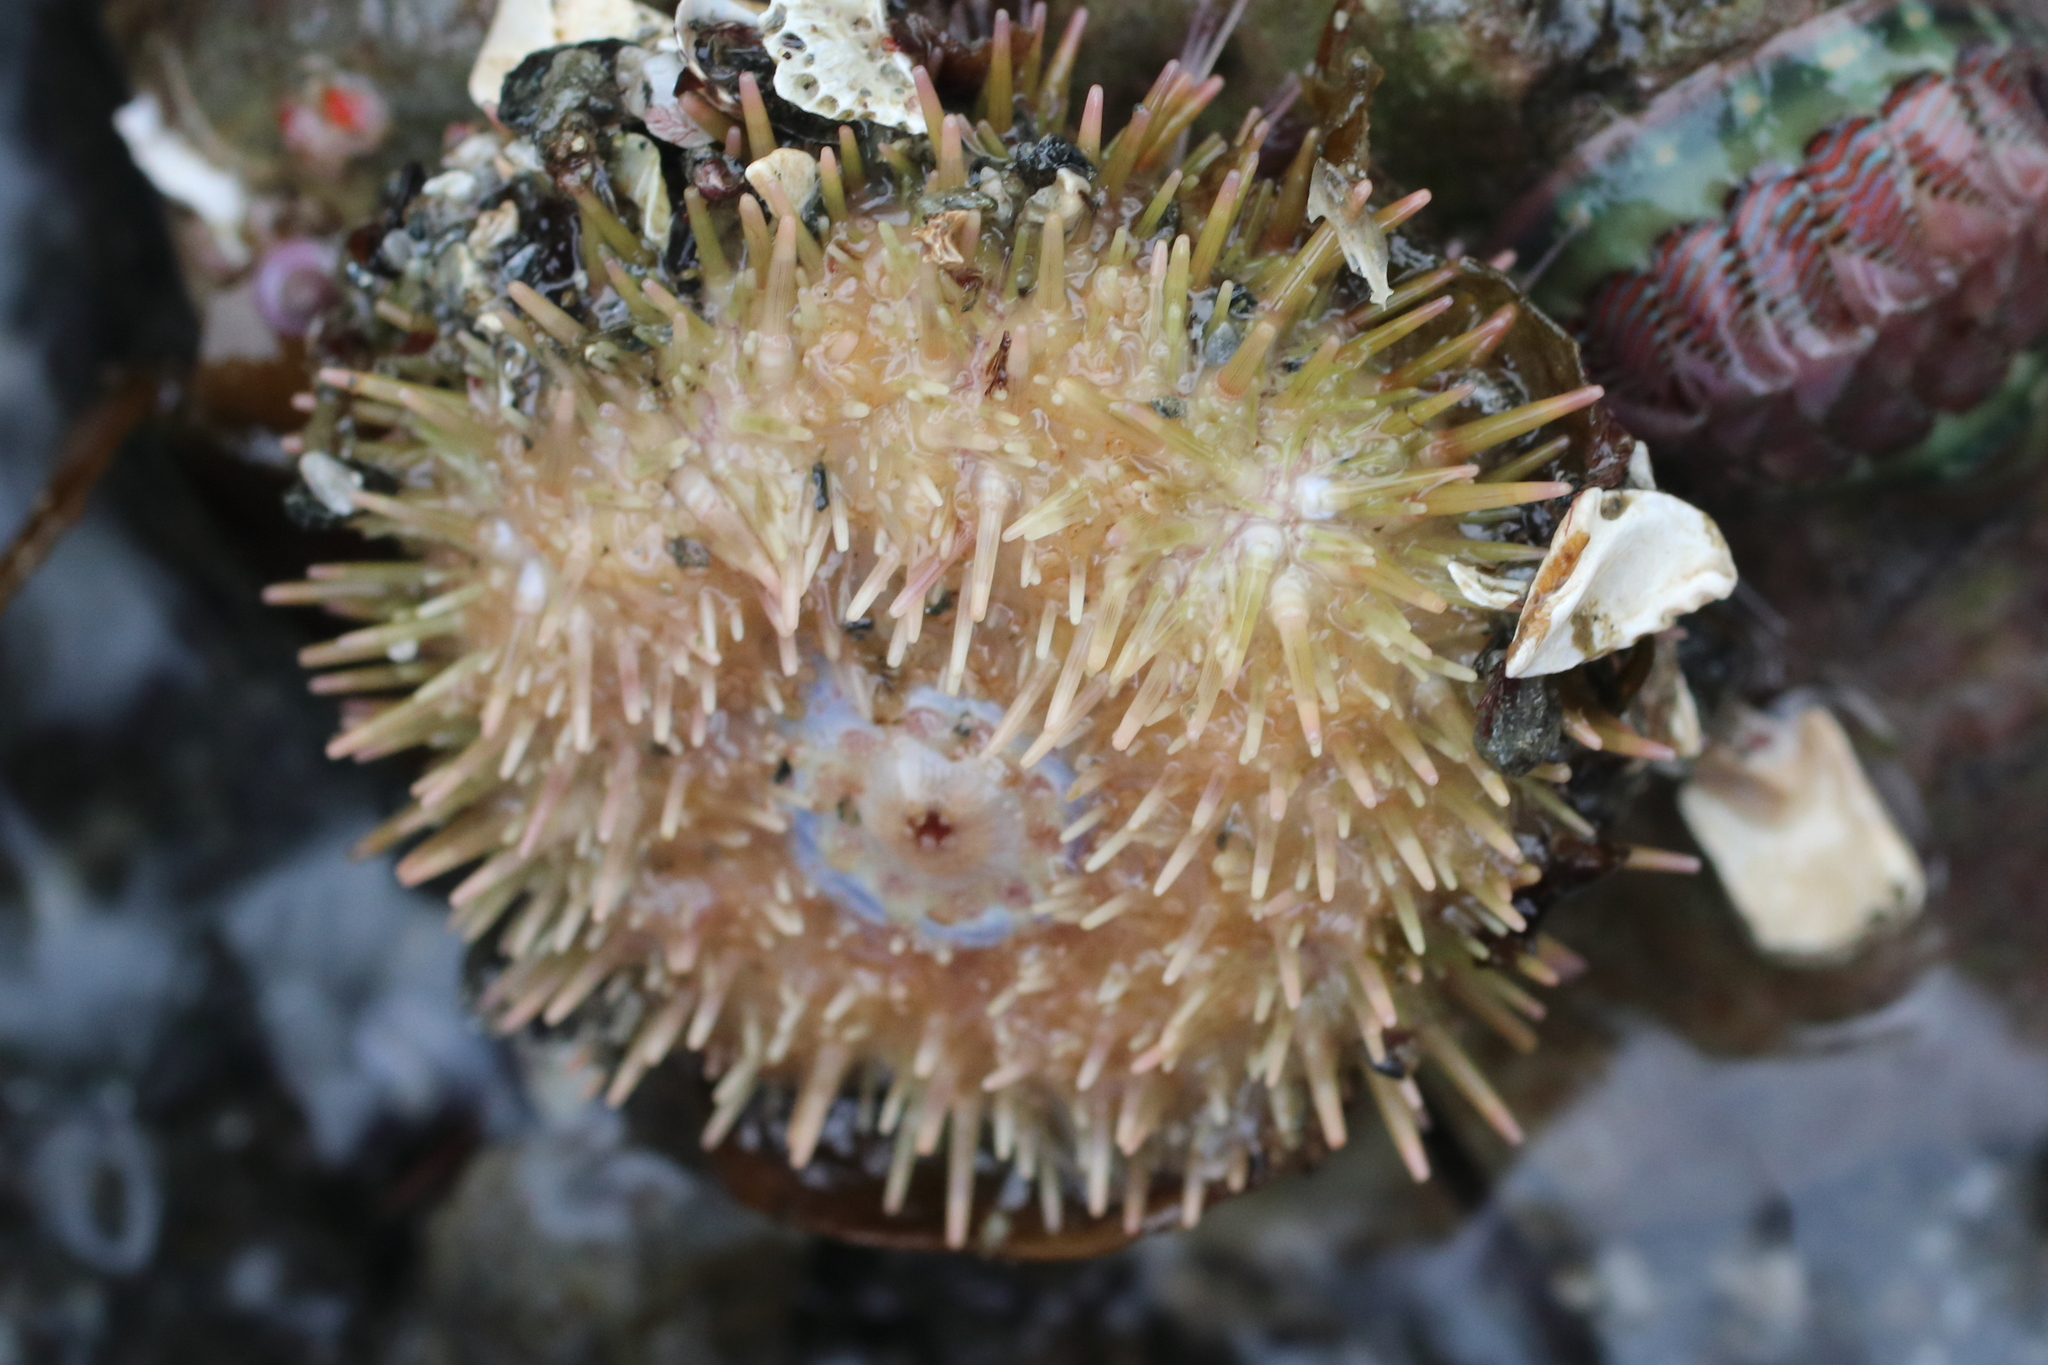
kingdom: Animalia
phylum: Echinodermata
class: Echinoidea
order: Camarodonta
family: Strongylocentrotidae
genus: Strongylocentrotus
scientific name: Strongylocentrotus droebachiensis
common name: Northern sea urchin
